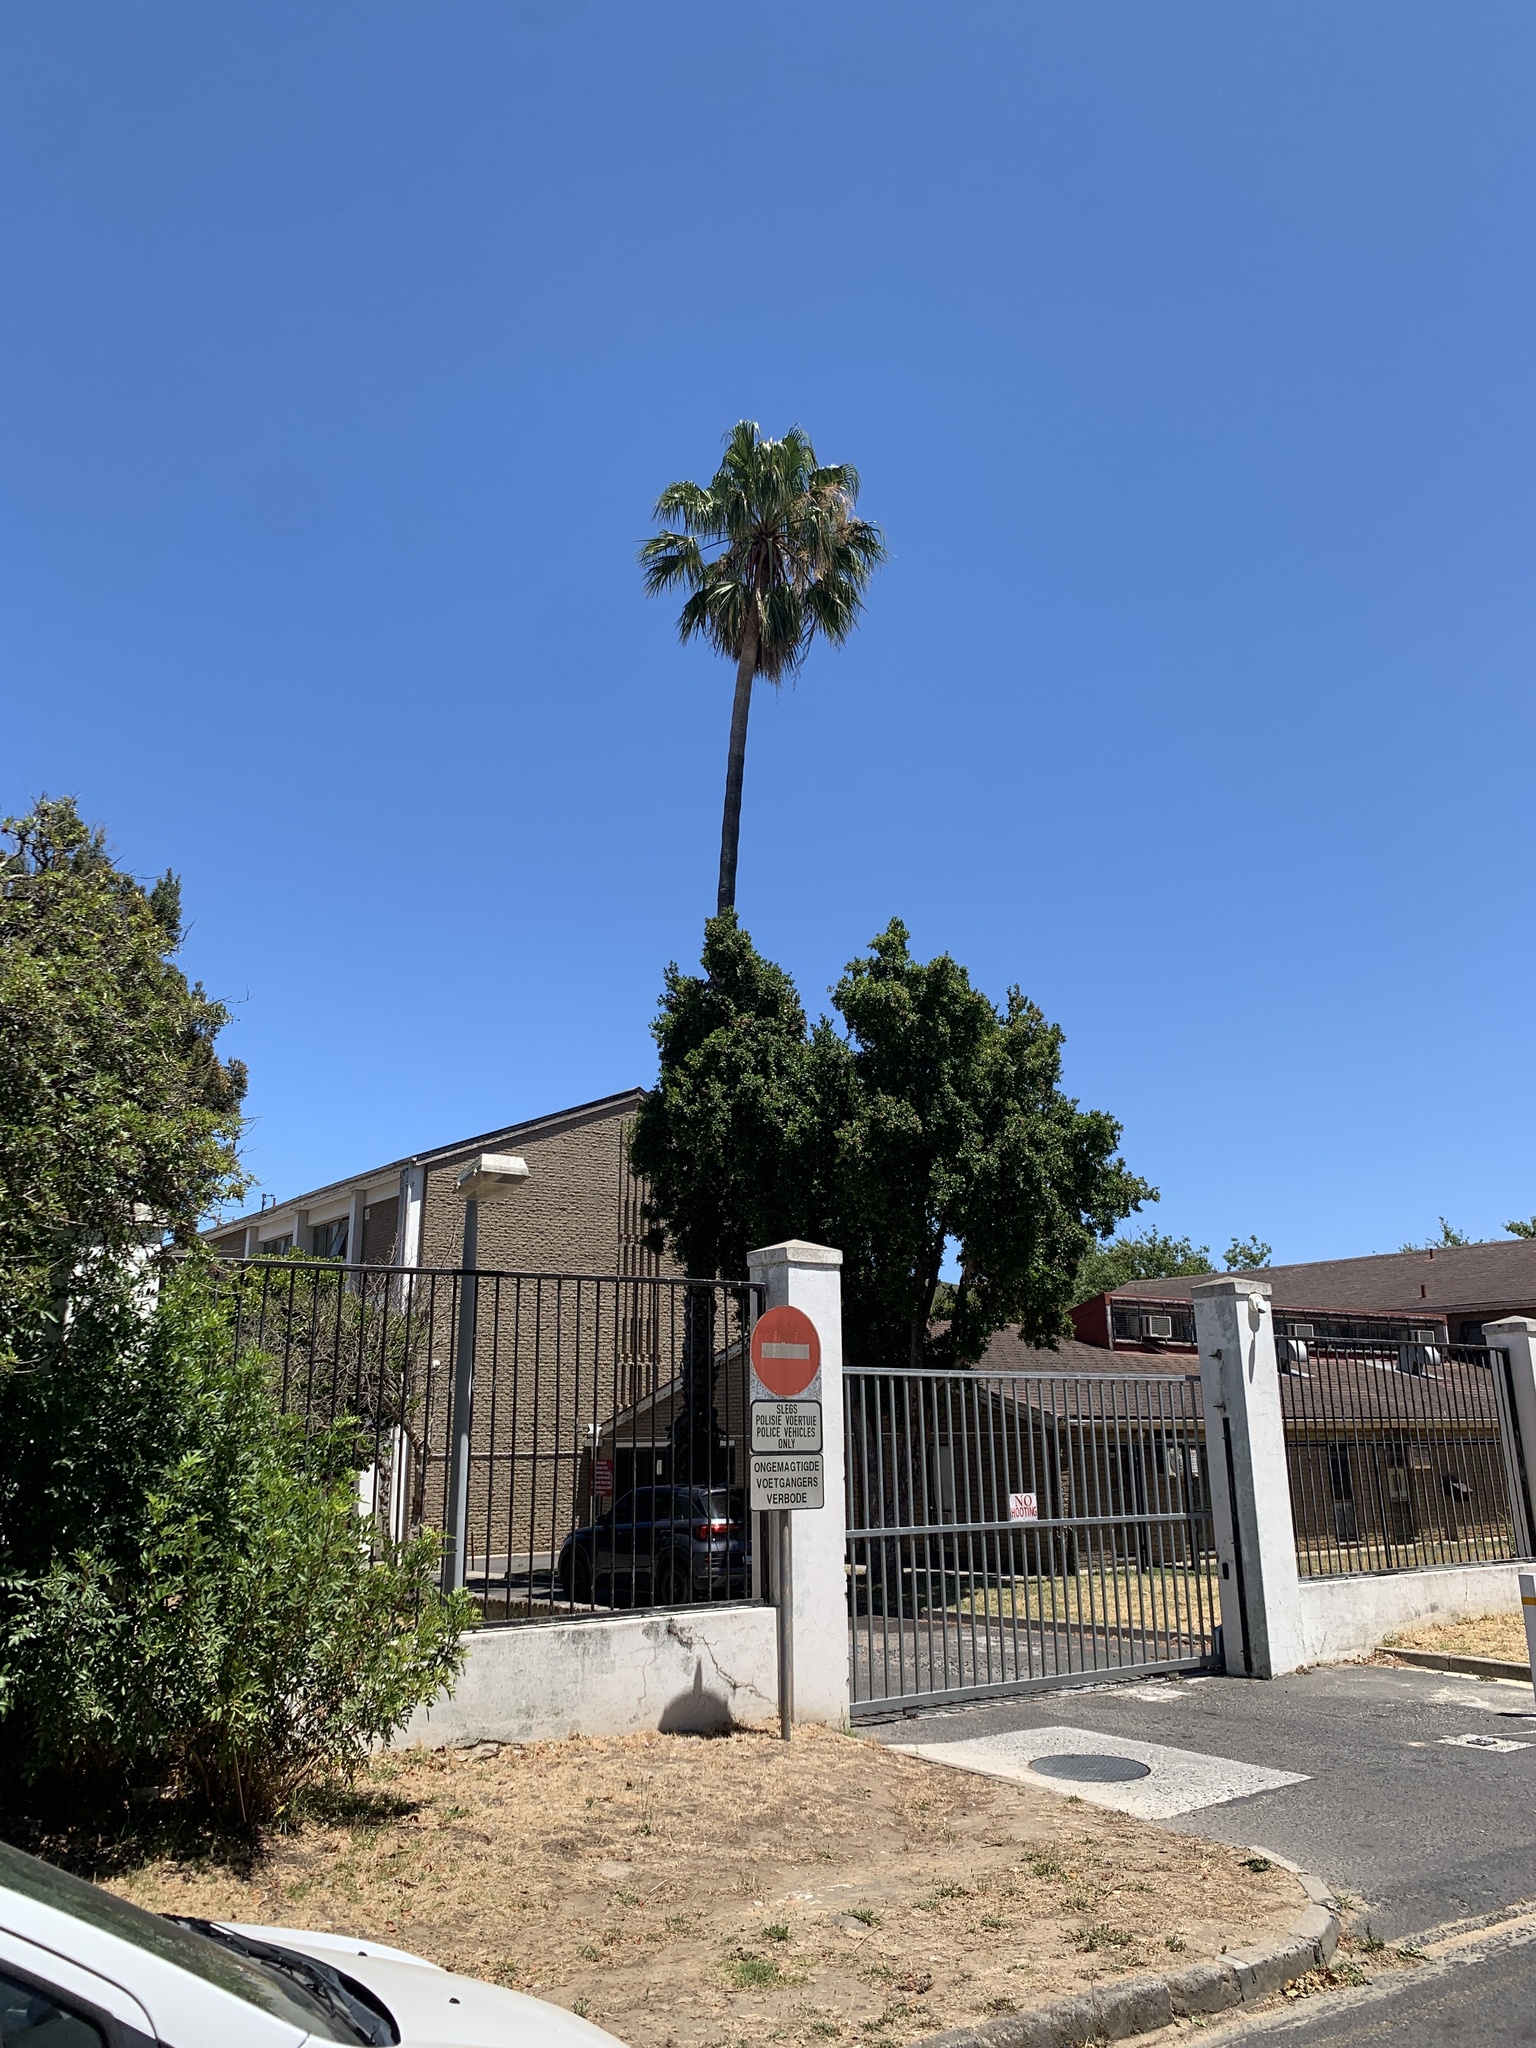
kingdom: Plantae
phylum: Tracheophyta
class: Liliopsida
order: Arecales
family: Arecaceae
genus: Washingtonia
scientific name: Washingtonia robusta
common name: Mexican fan palm
